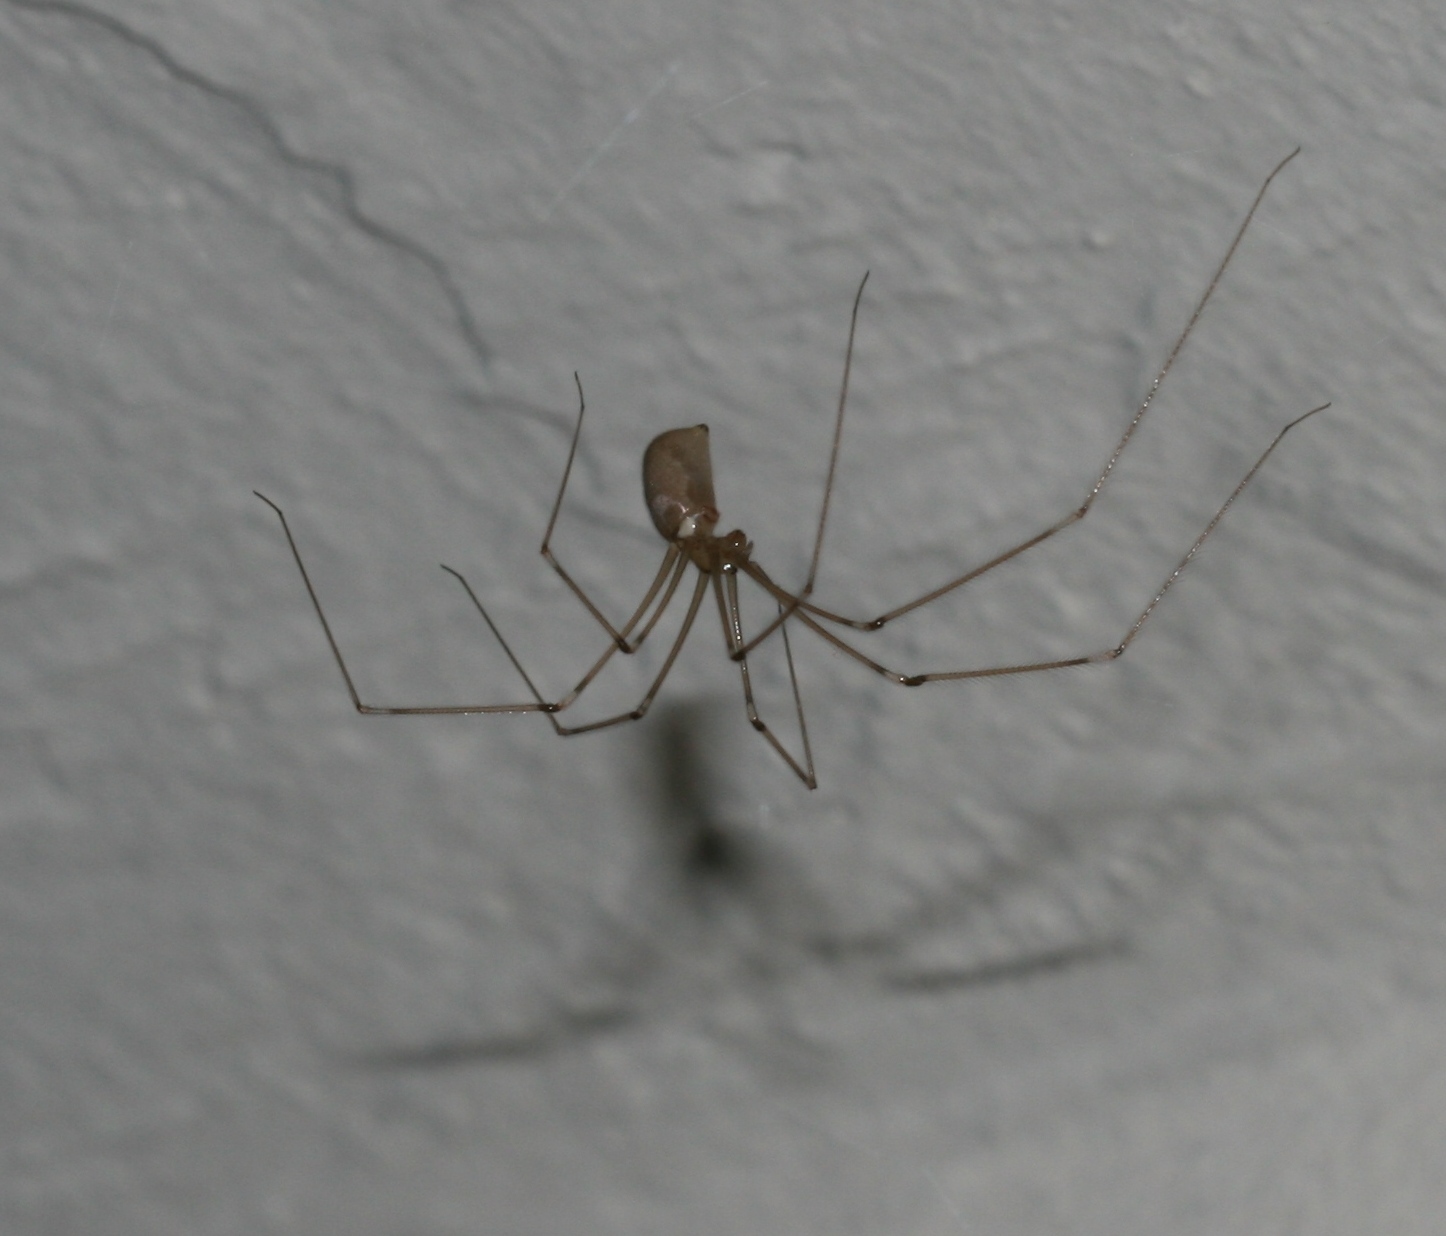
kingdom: Animalia
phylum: Arthropoda
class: Arachnida
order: Araneae
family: Pholcidae
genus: Pholcus
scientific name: Pholcus phalangioides
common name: Longbodied cellar spider
